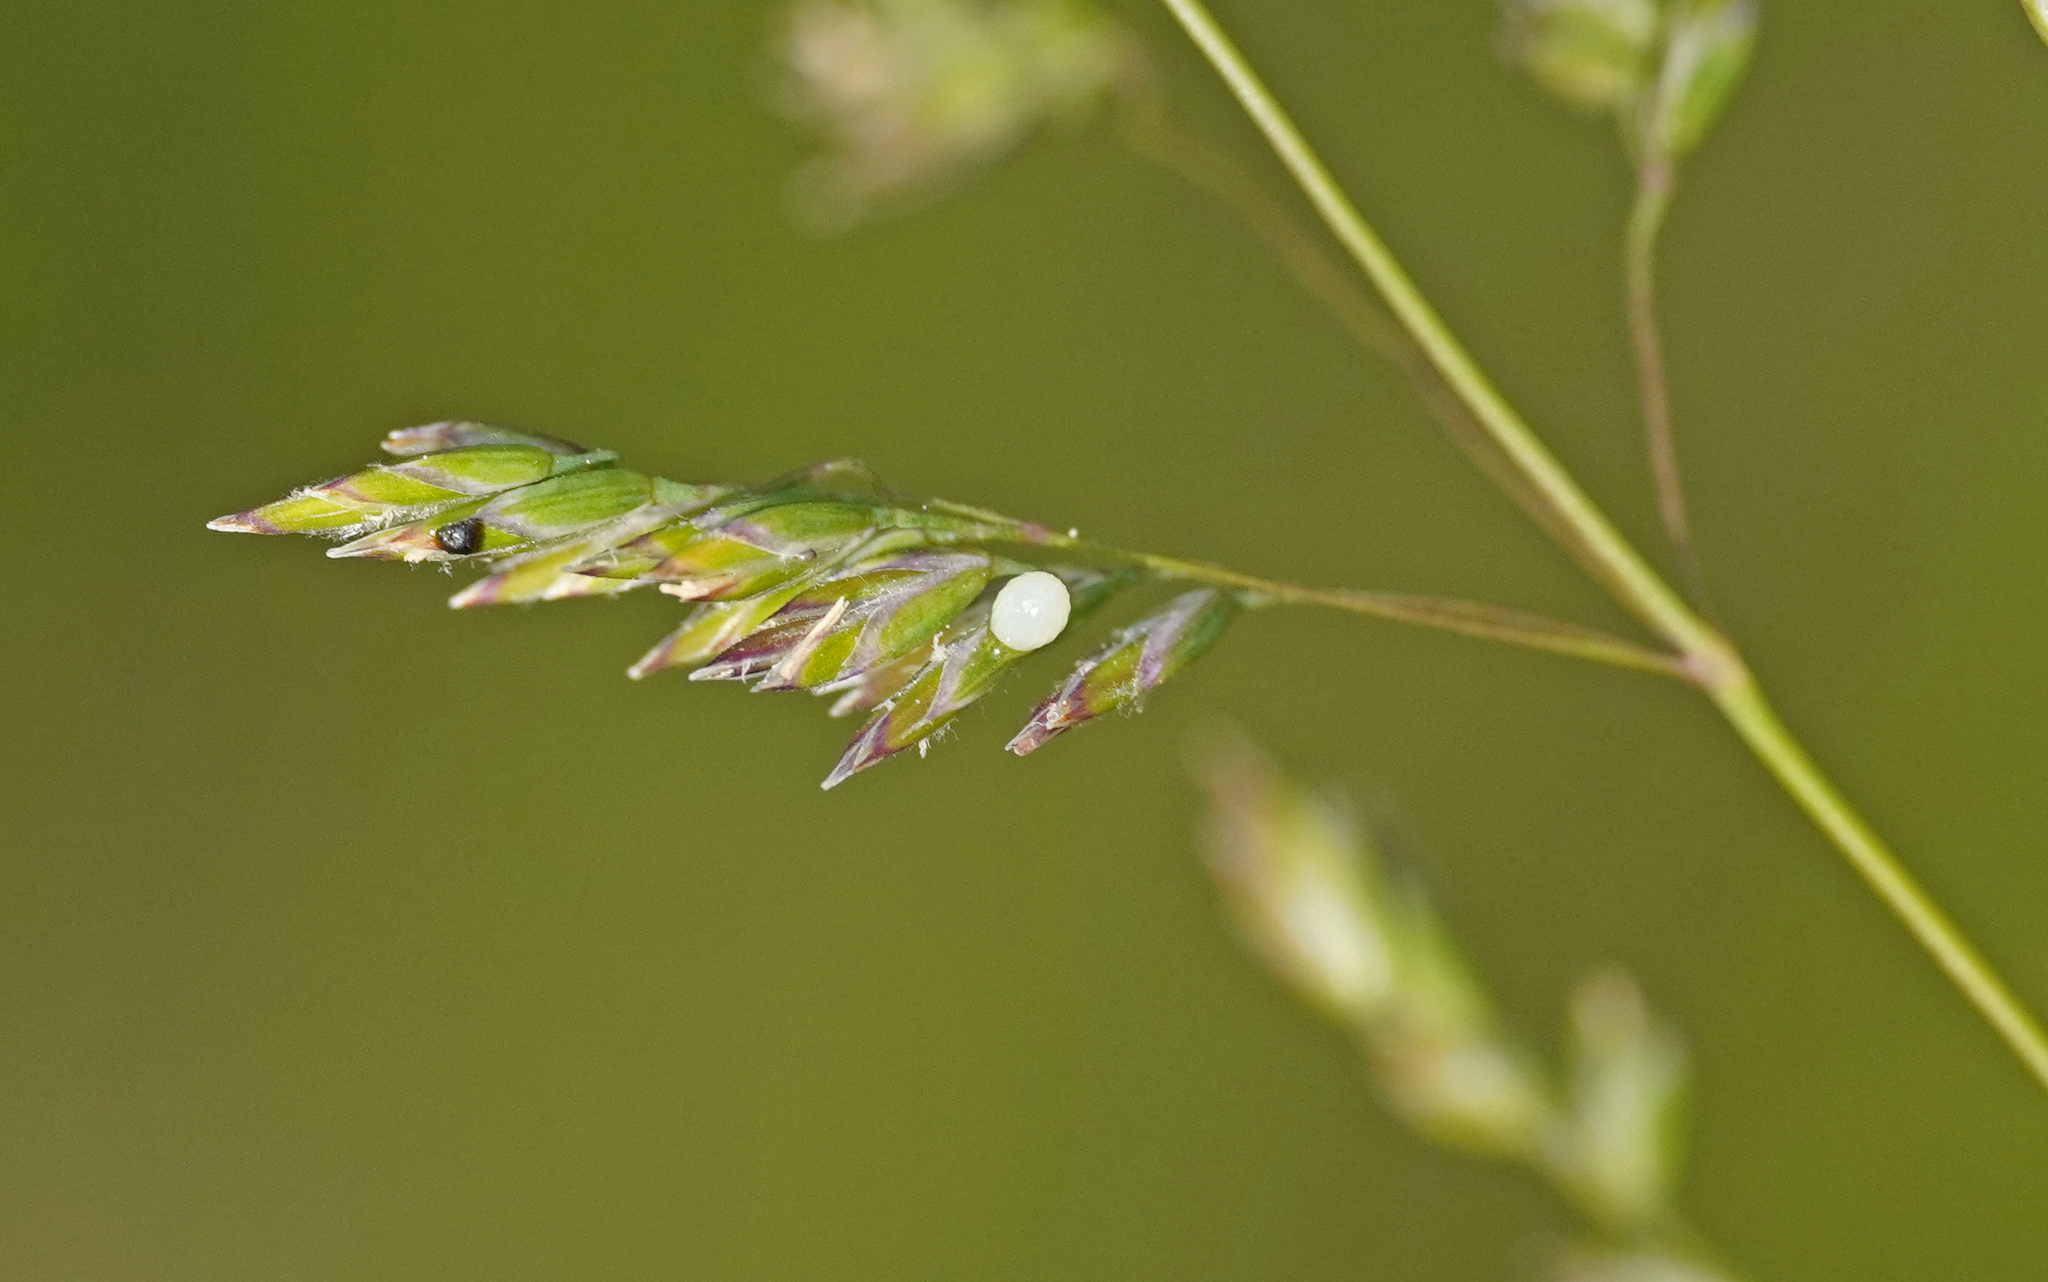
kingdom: Animalia
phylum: Arthropoda
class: Insecta
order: Lepidoptera
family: Nymphalidae
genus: Erebia
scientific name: Erebia medusa
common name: Woodland ringlet
